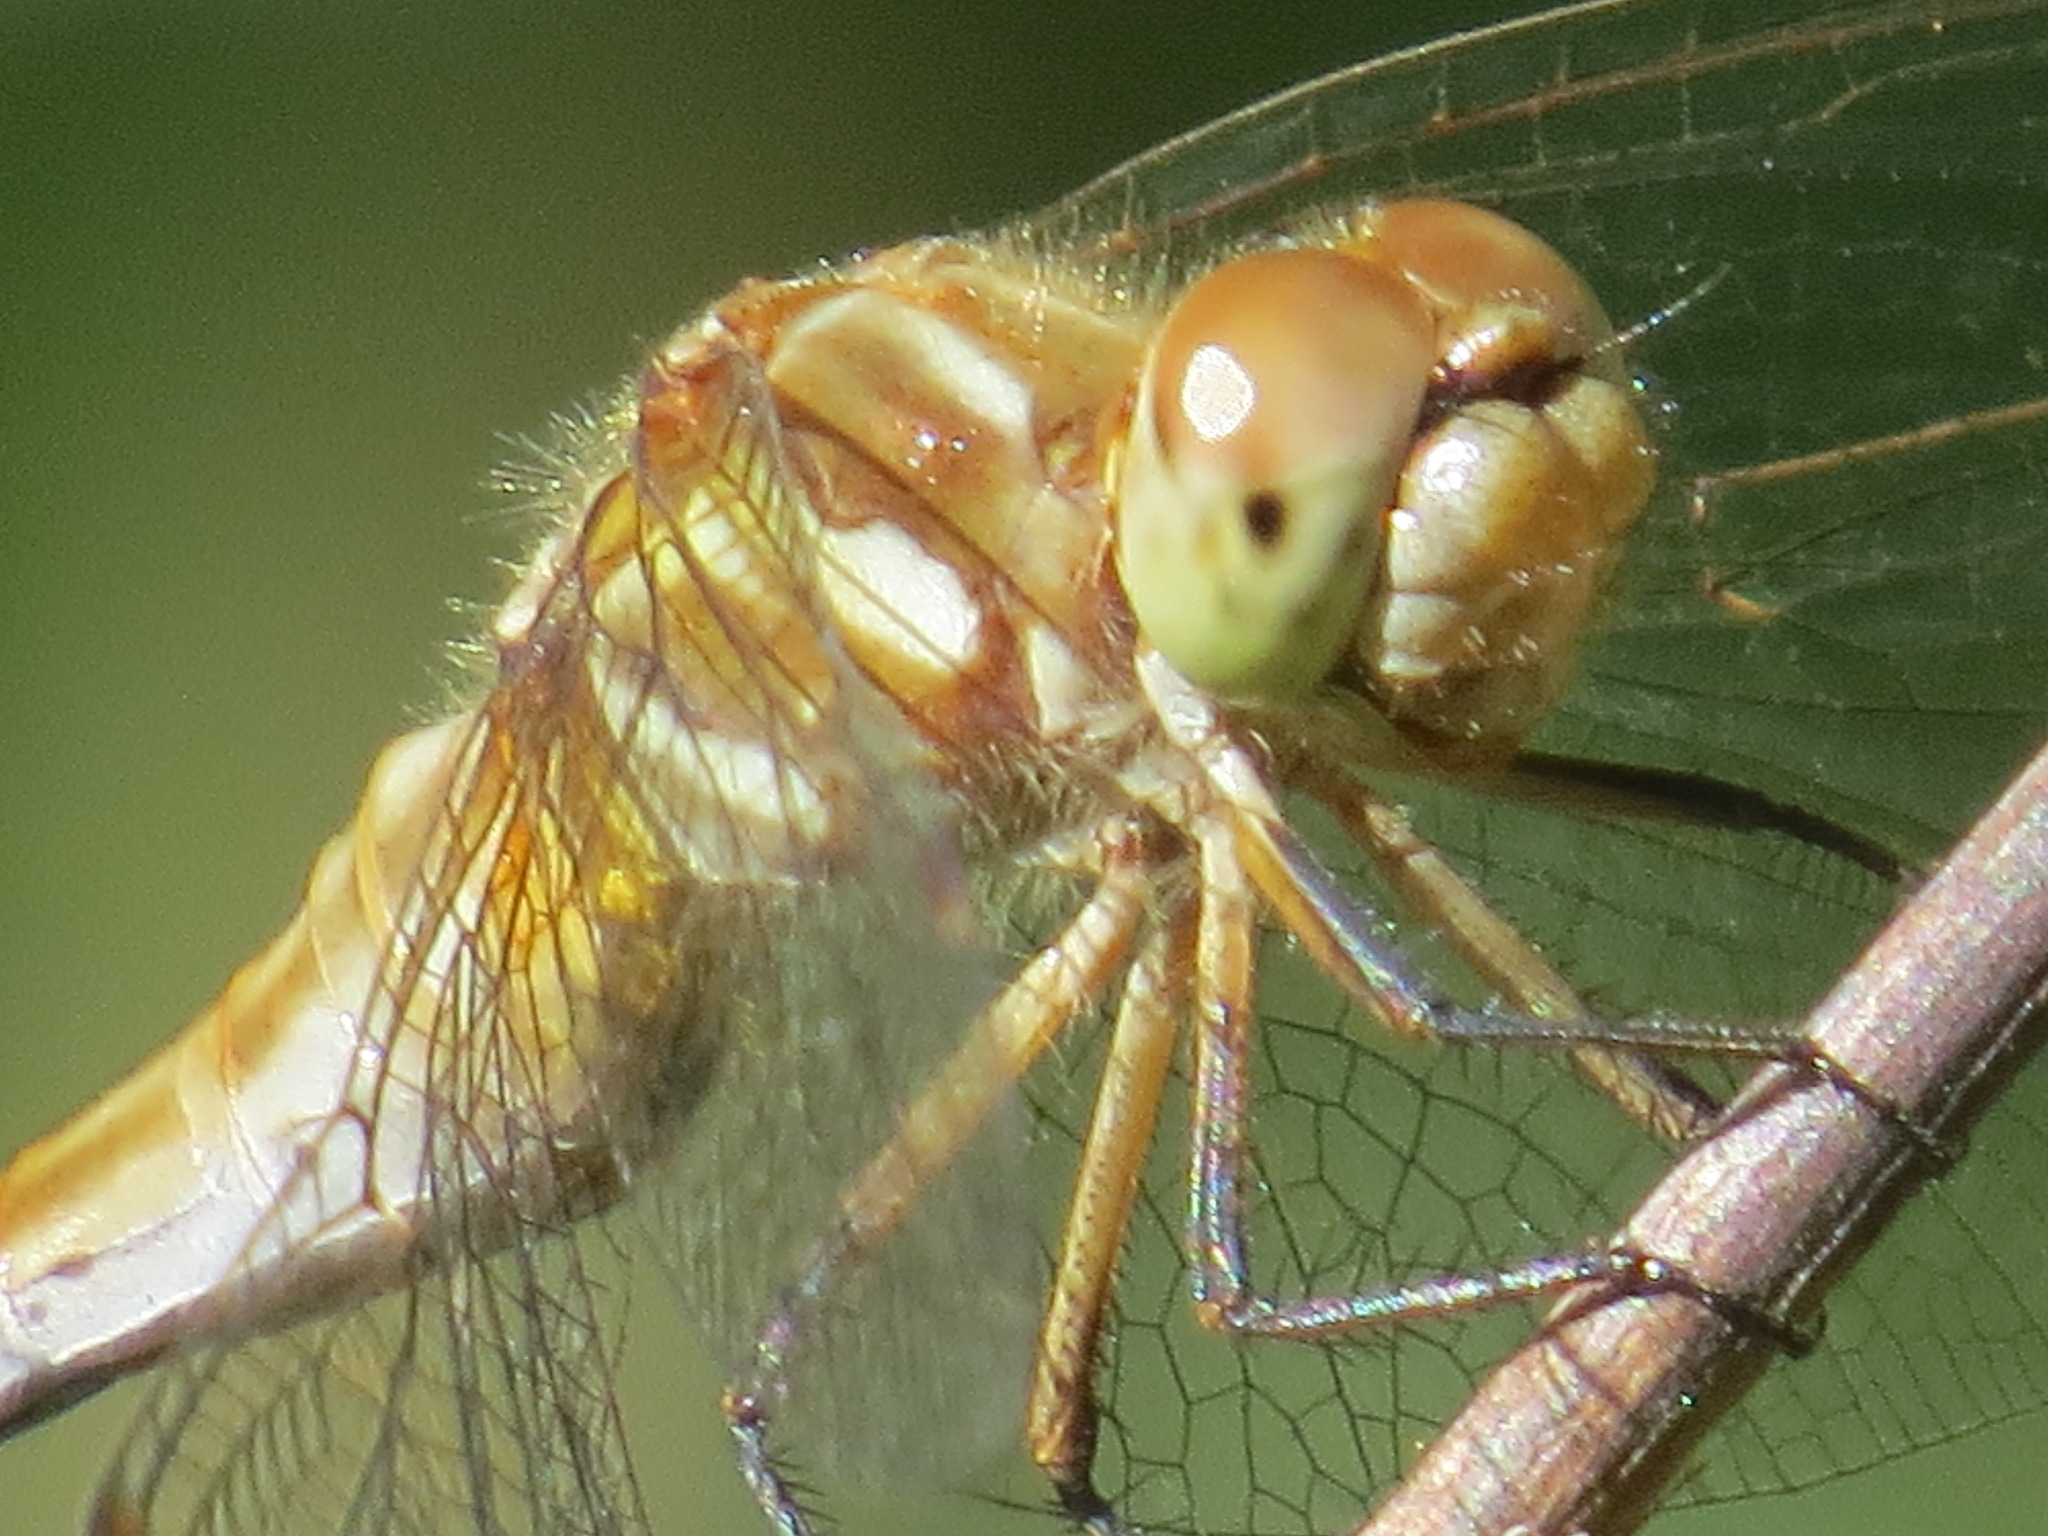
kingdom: Animalia
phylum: Arthropoda
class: Insecta
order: Odonata
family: Libellulidae
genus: Sympetrum
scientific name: Sympetrum pallipes
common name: Striped meadowhawk
